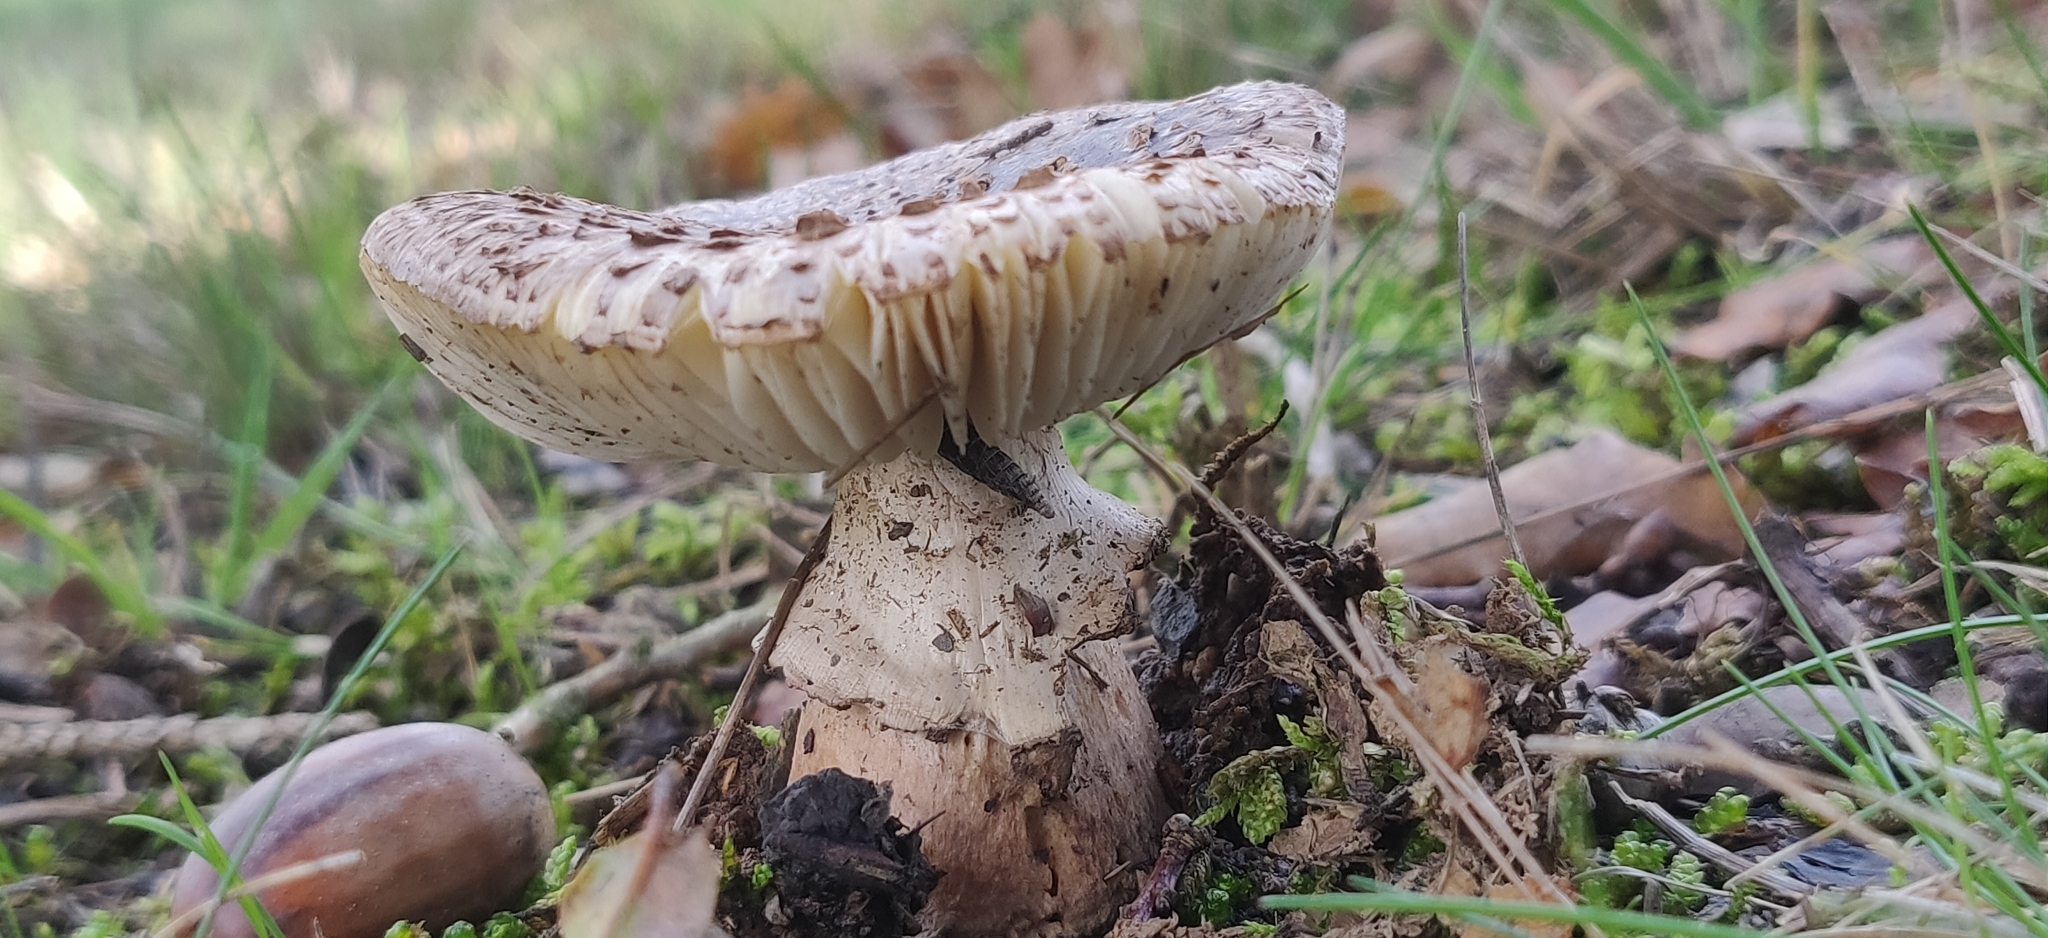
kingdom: Fungi
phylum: Basidiomycota
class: Agaricomycetes
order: Agaricales
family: Amanitaceae
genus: Amanita
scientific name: Amanita rubescens
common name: Blusher
